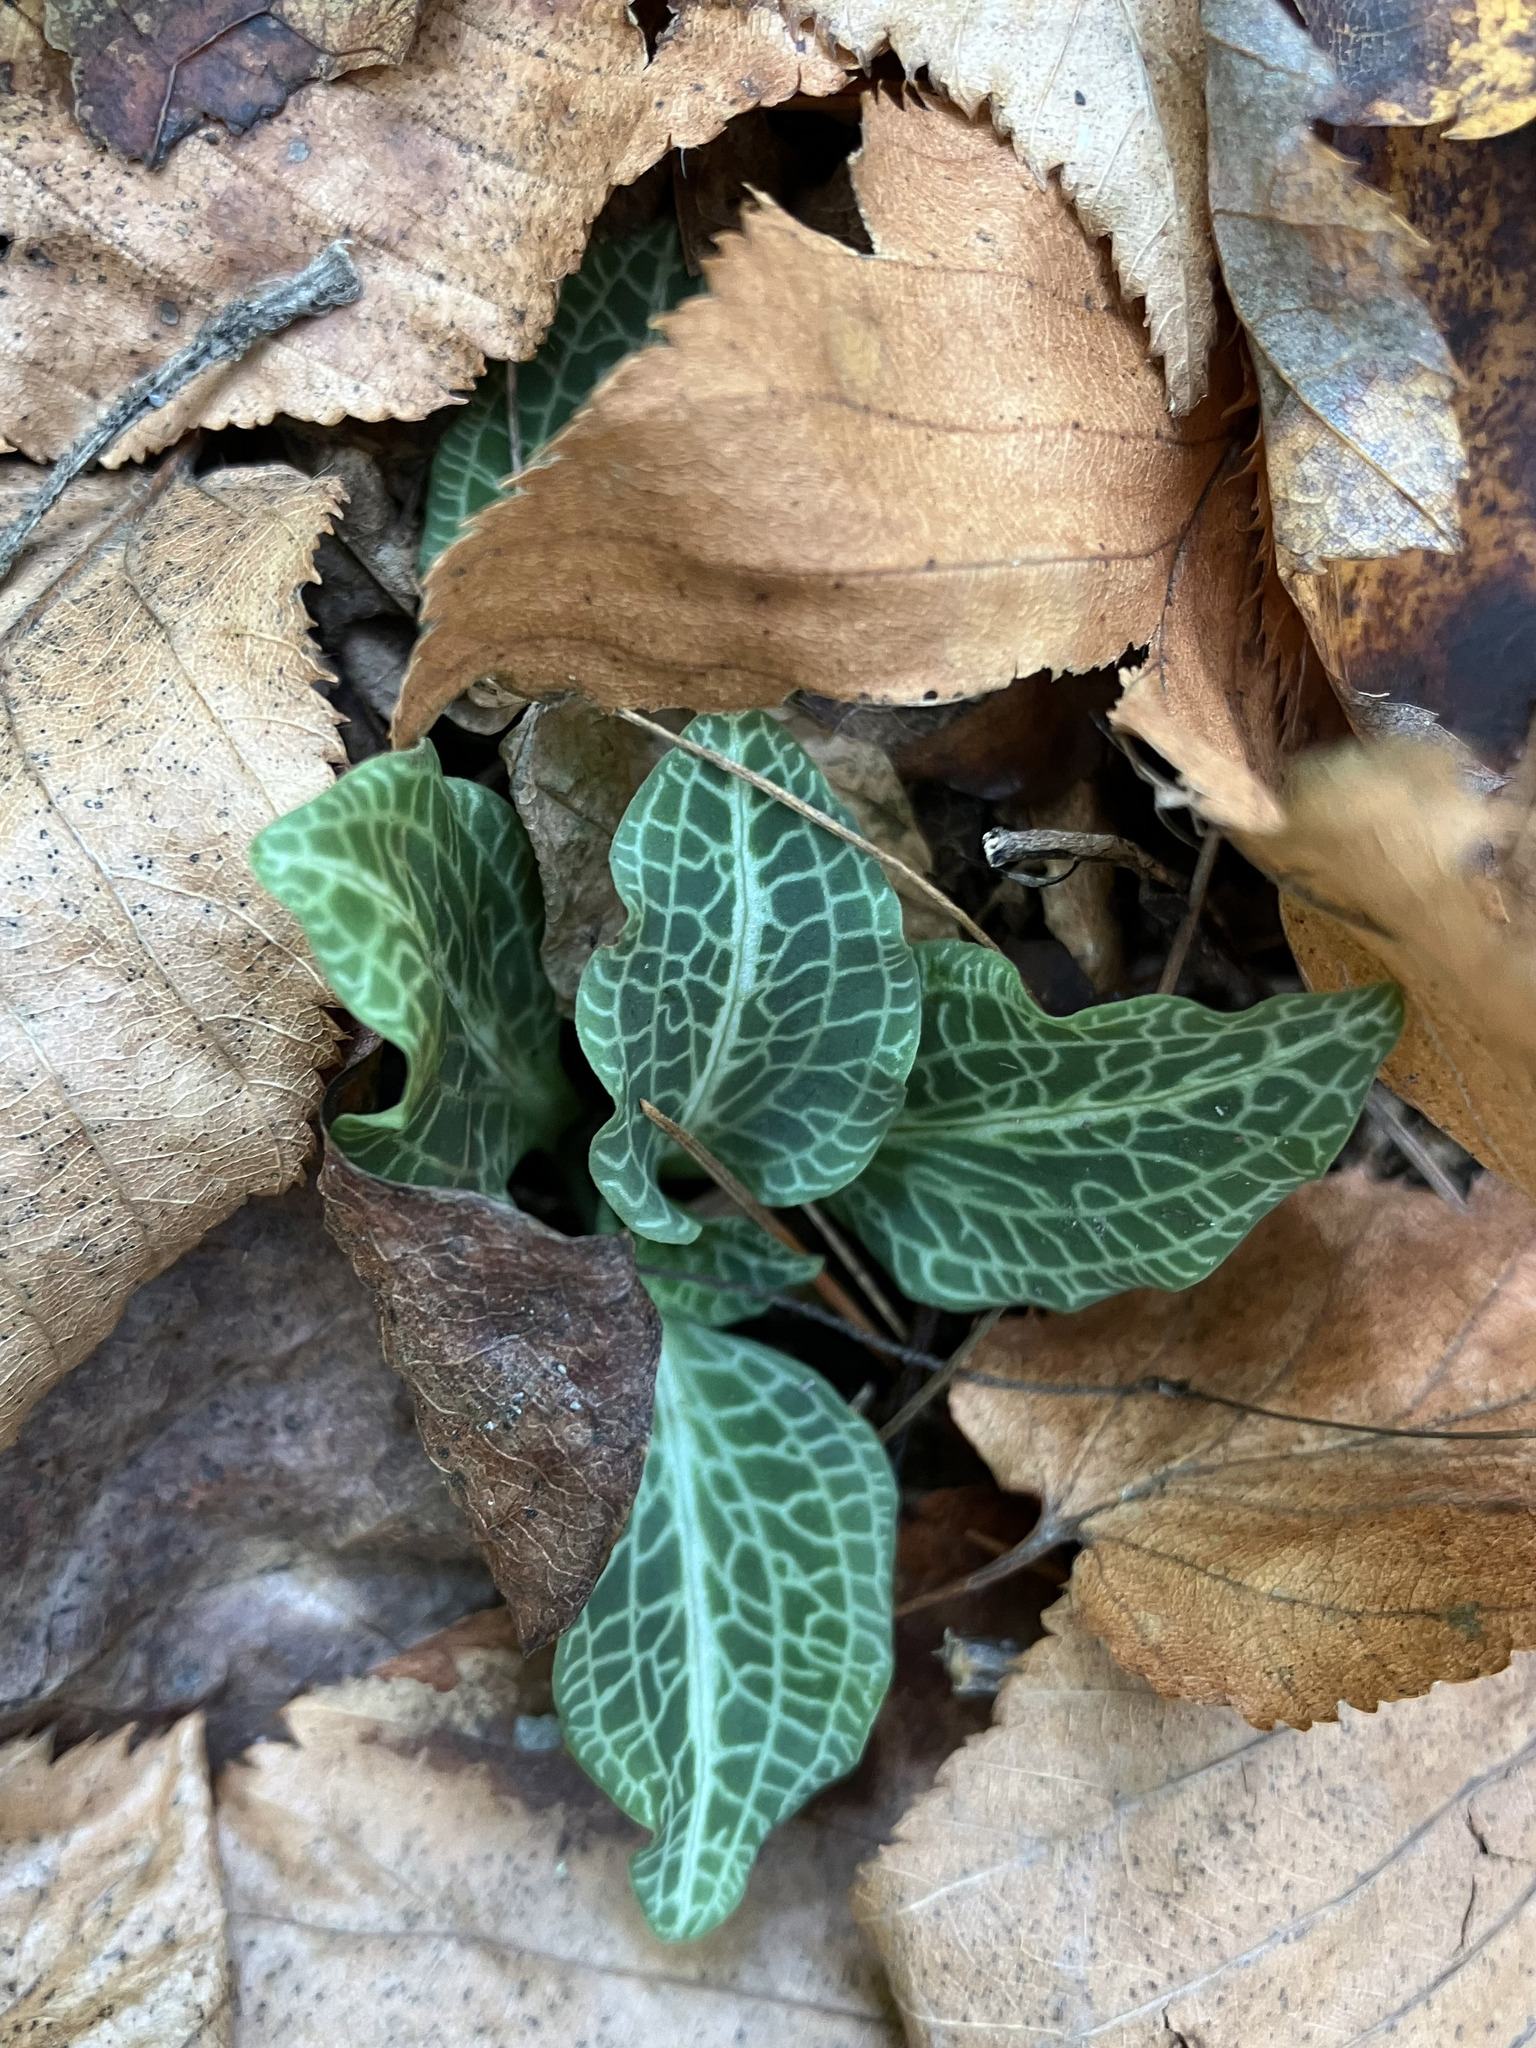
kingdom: Plantae
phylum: Tracheophyta
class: Liliopsida
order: Asparagales
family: Orchidaceae
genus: Goodyera
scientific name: Goodyera pubescens
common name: Downy rattlesnake-plantain
